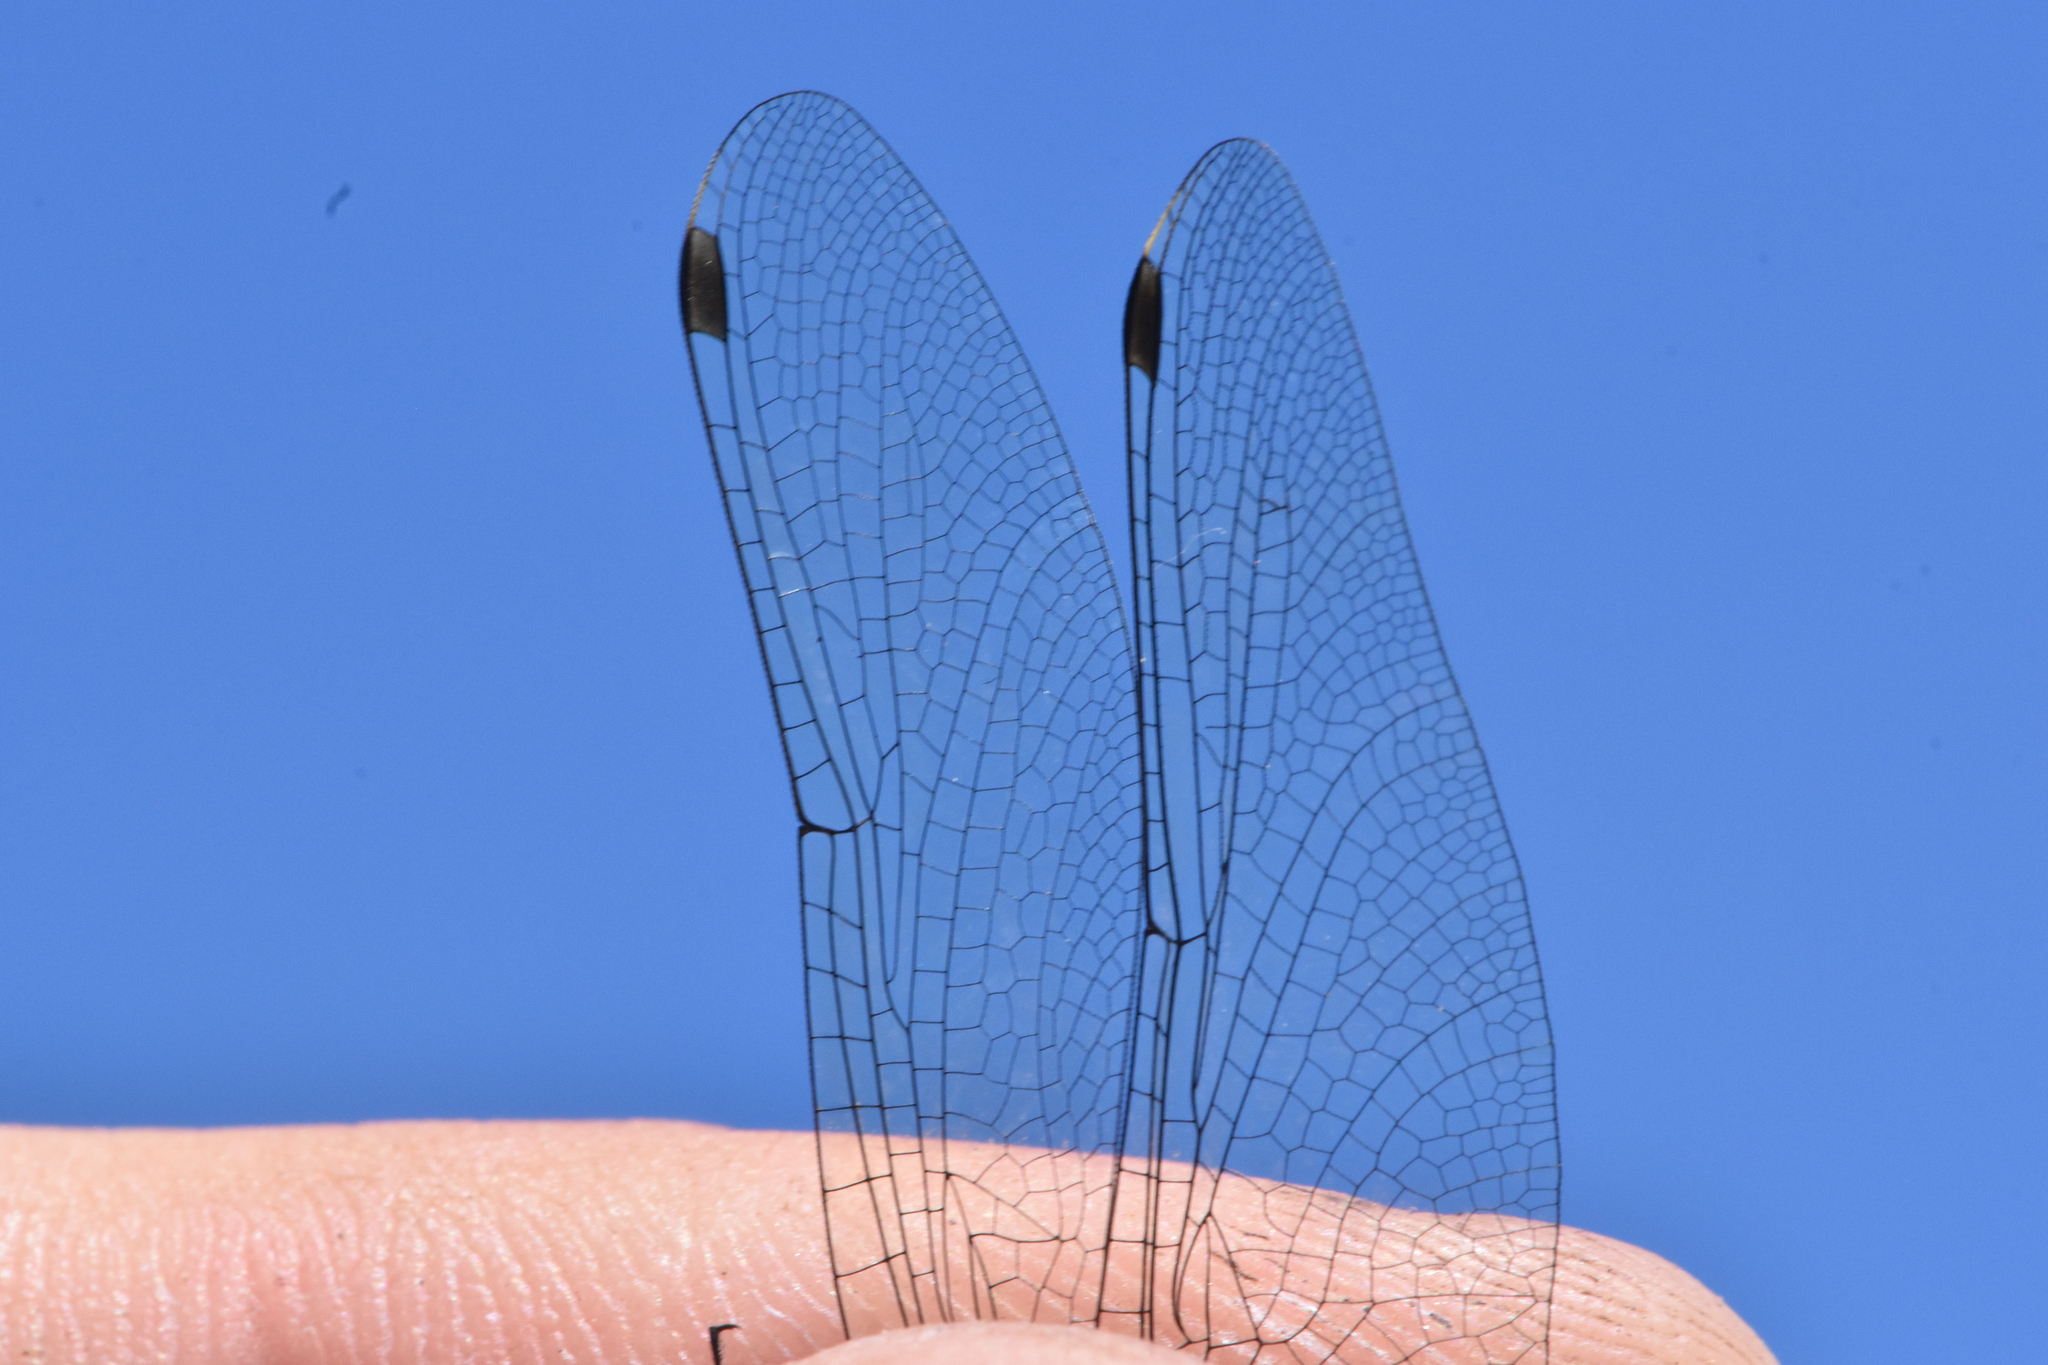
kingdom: Animalia
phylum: Arthropoda
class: Insecta
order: Odonata
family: Libellulidae
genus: Leucorrhinia
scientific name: Leucorrhinia glacialis
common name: Crimson-ringed whiteface
